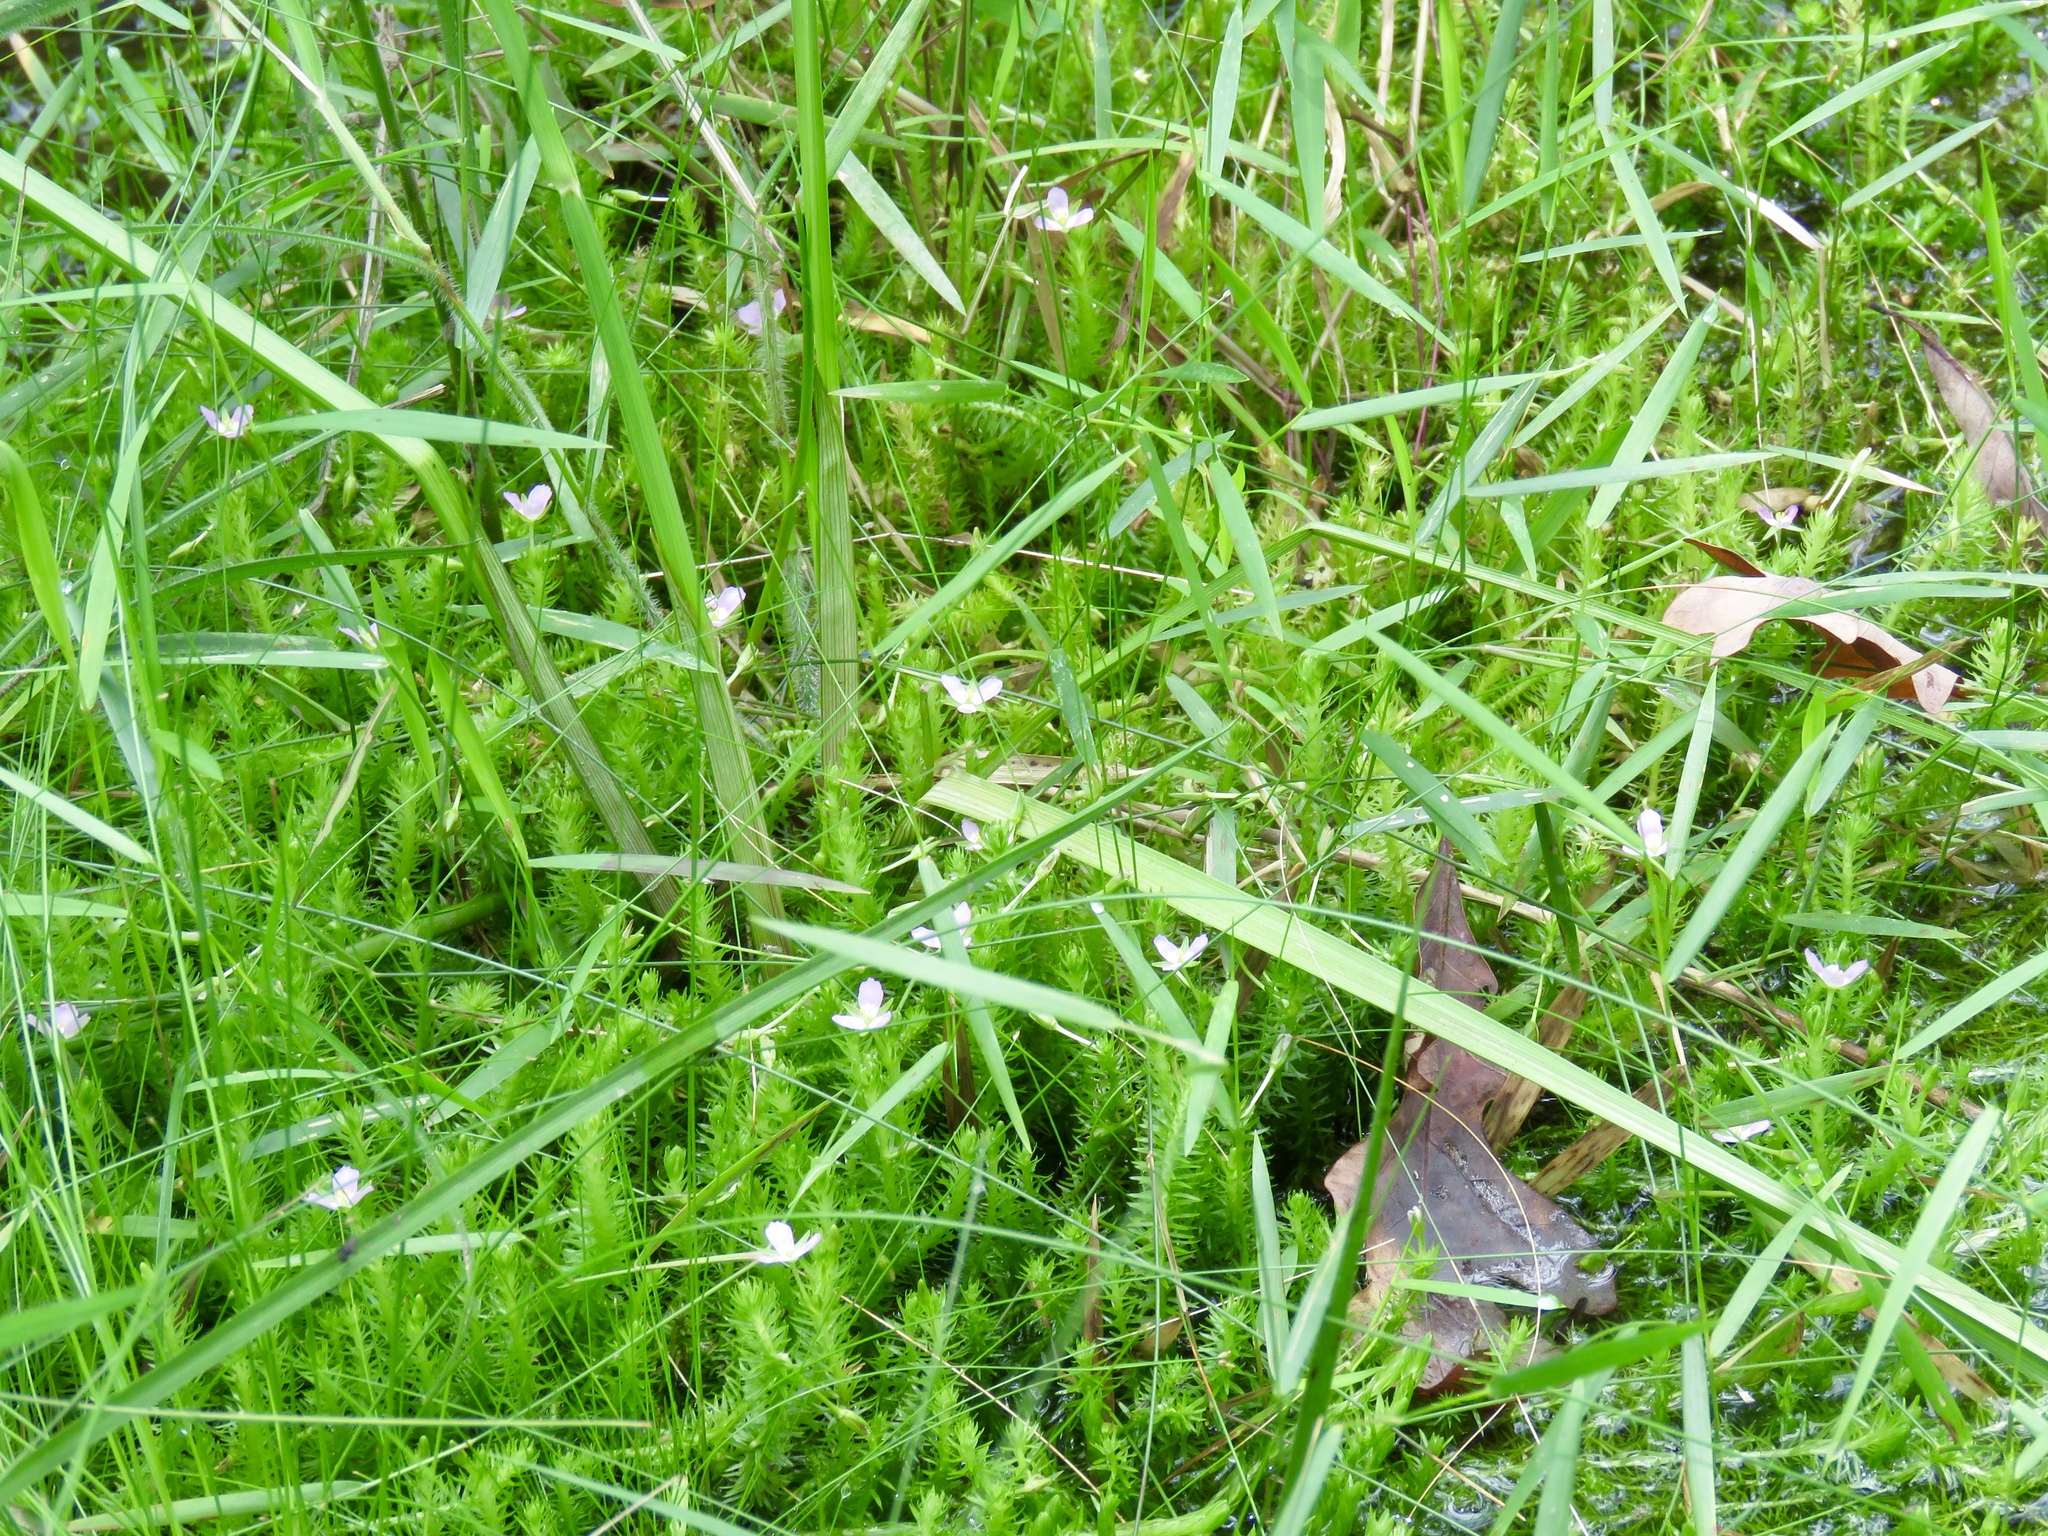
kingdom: Plantae
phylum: Tracheophyta
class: Liliopsida
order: Poales
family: Mayacaceae
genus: Mayaca
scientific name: Mayaca fluviatilis
